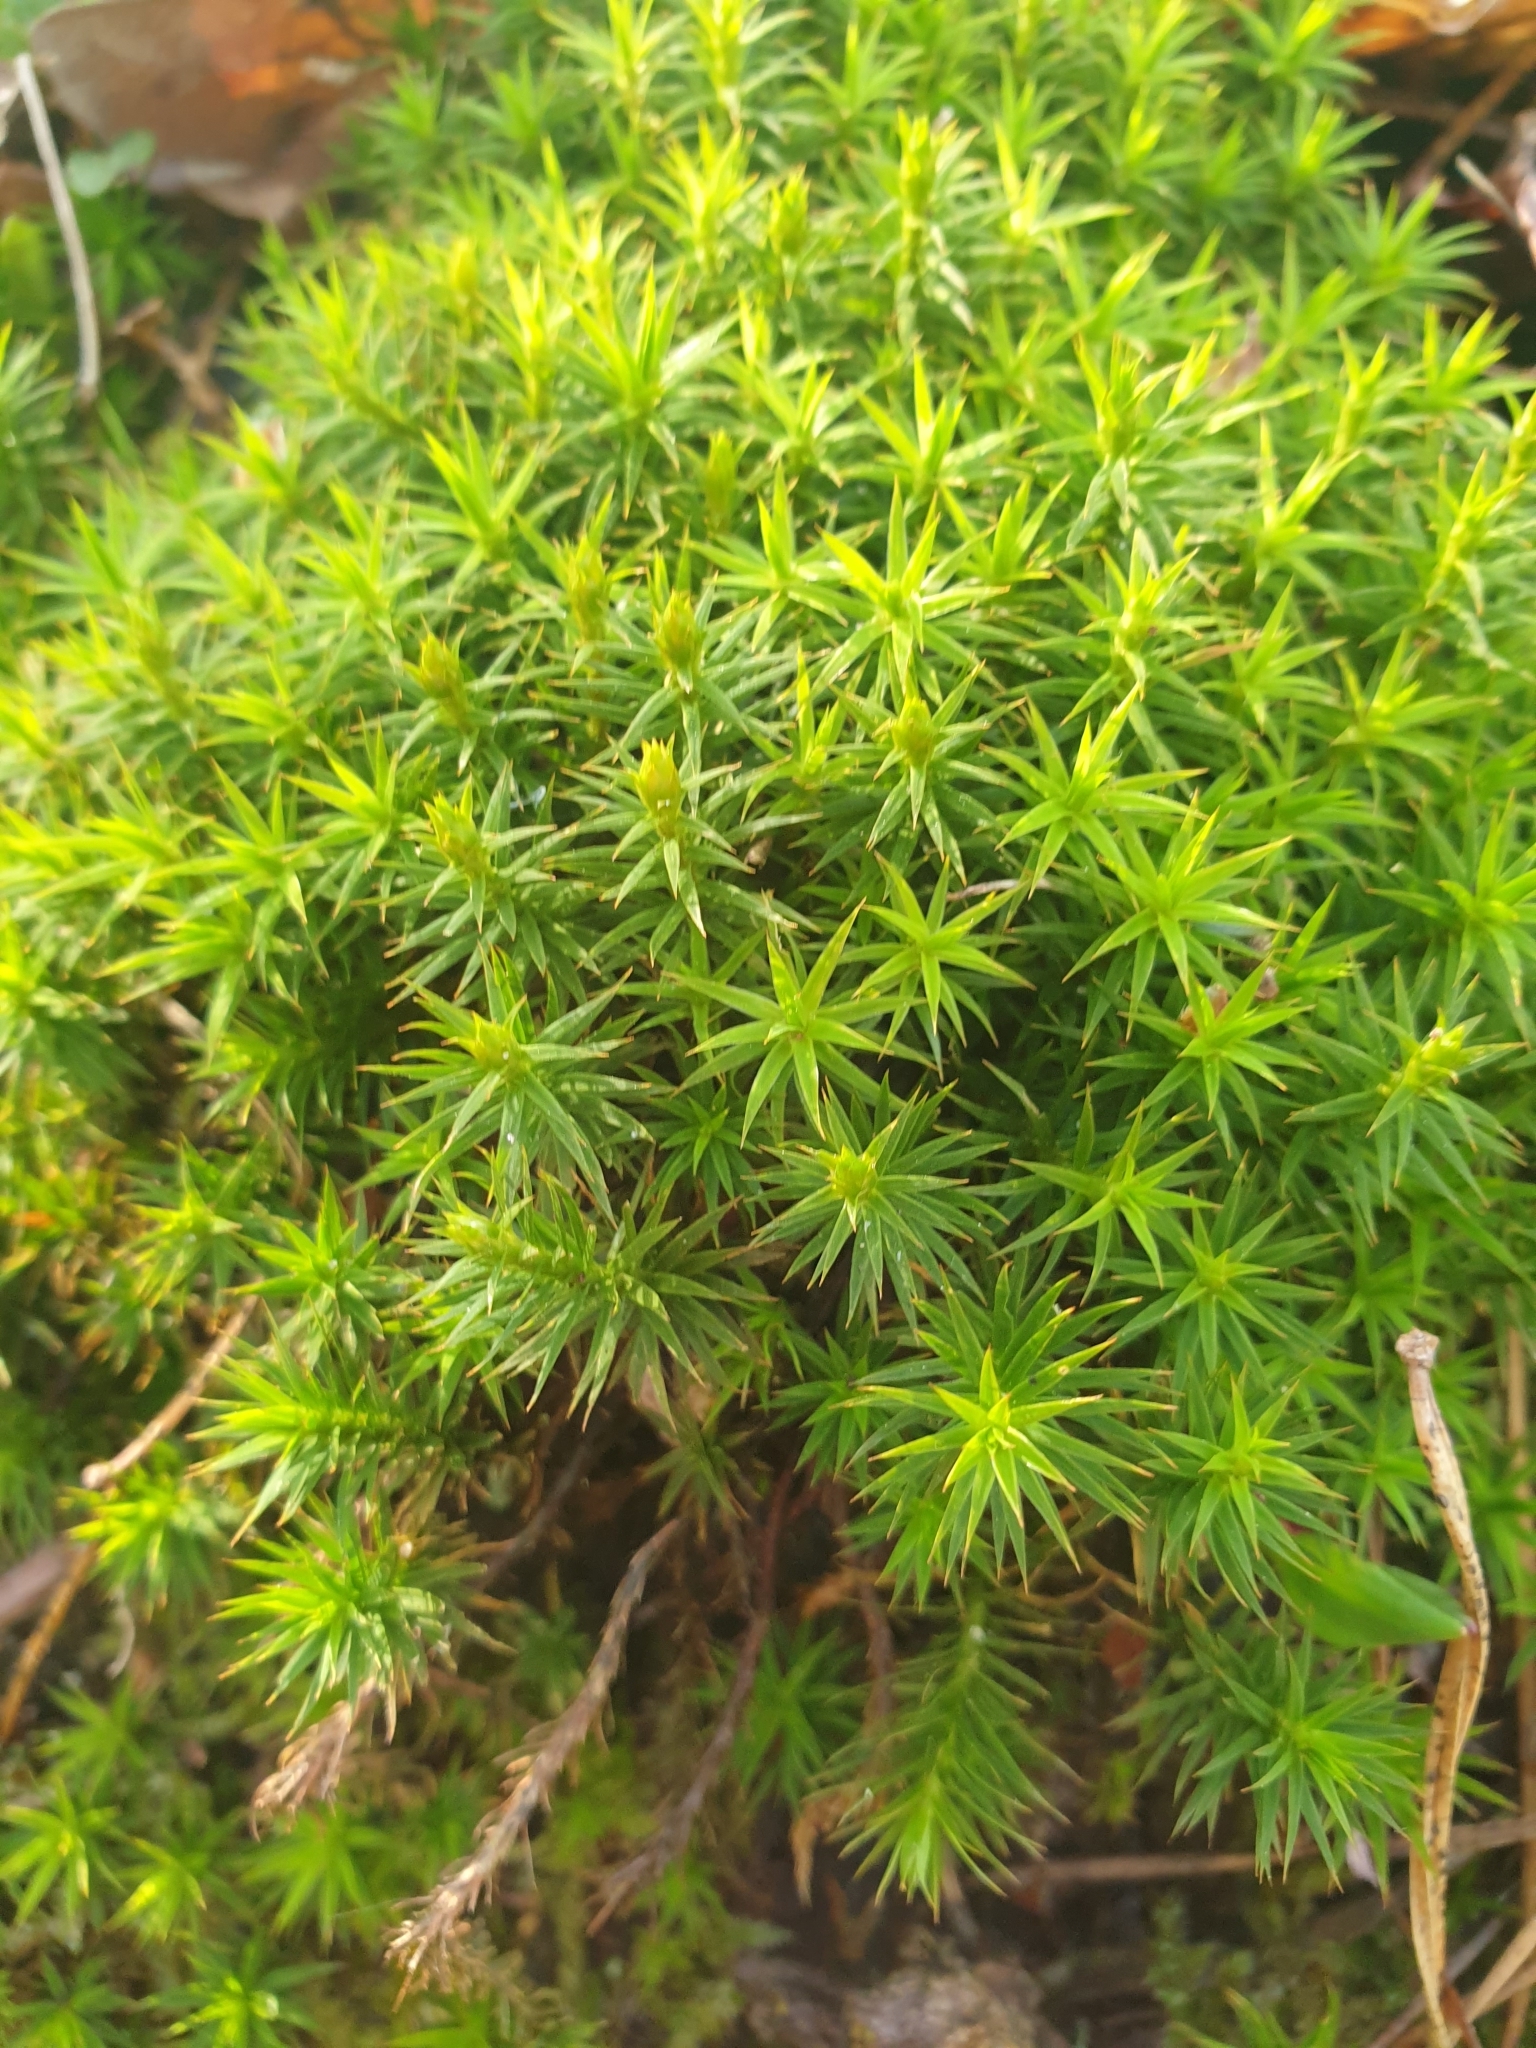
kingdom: Plantae
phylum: Bryophyta
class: Polytrichopsida
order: Polytrichales
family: Polytrichaceae
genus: Polytrichum
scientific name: Polytrichum formosum
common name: Bank haircap moss
